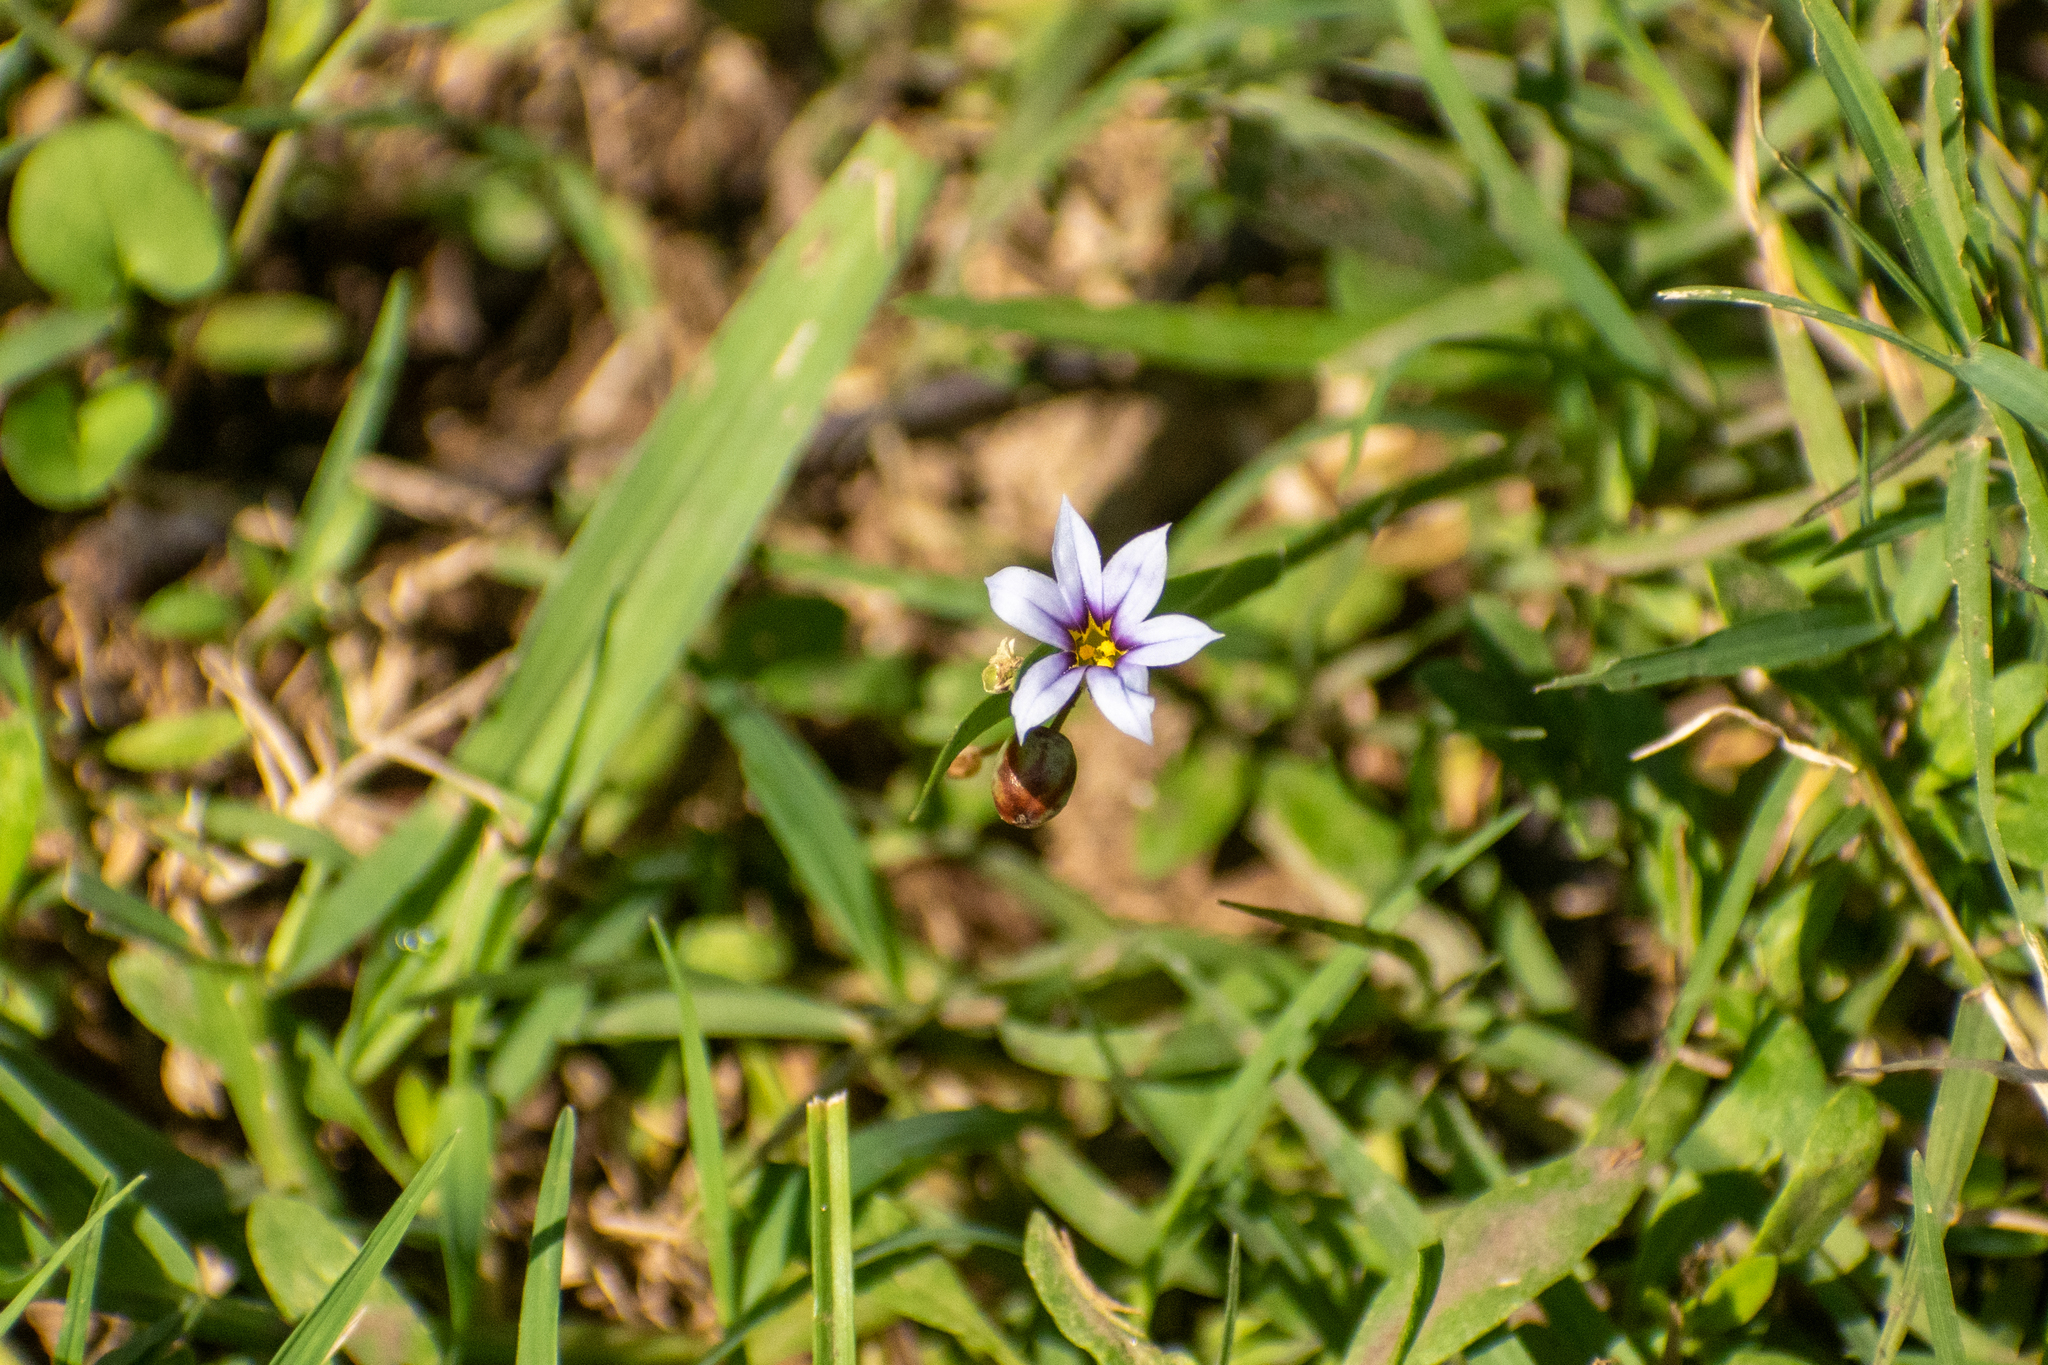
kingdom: Plantae
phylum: Tracheophyta
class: Liliopsida
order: Asparagales
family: Iridaceae
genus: Sisyrinchium
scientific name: Sisyrinchium micranthum
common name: Bermuda pigroot
